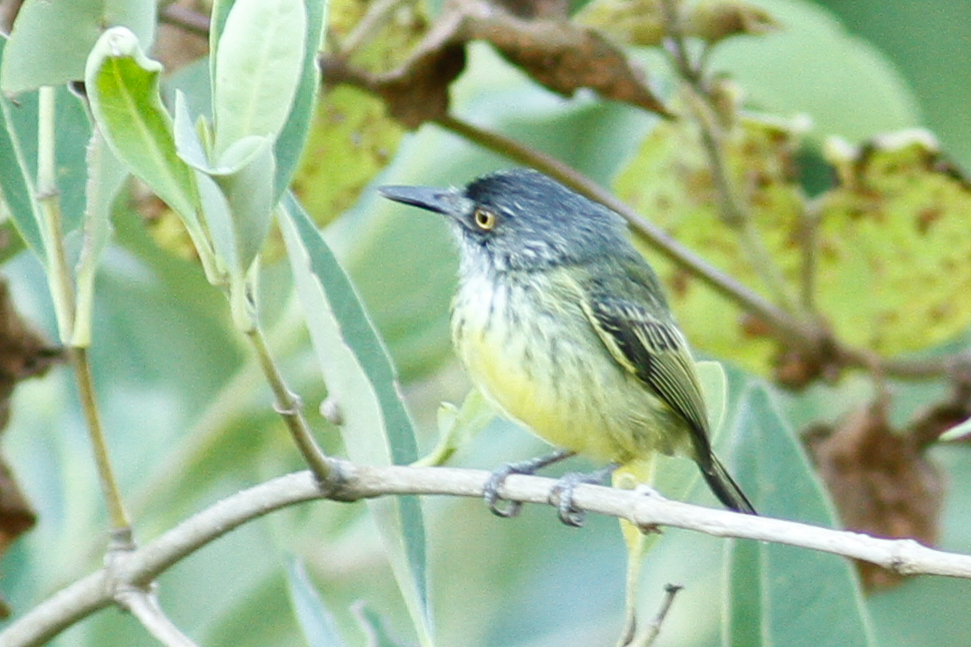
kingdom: Animalia
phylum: Chordata
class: Aves
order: Passeriformes
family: Tyrannidae
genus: Todirostrum
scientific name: Todirostrum maculatum
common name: Spotted tody-flycatcher
